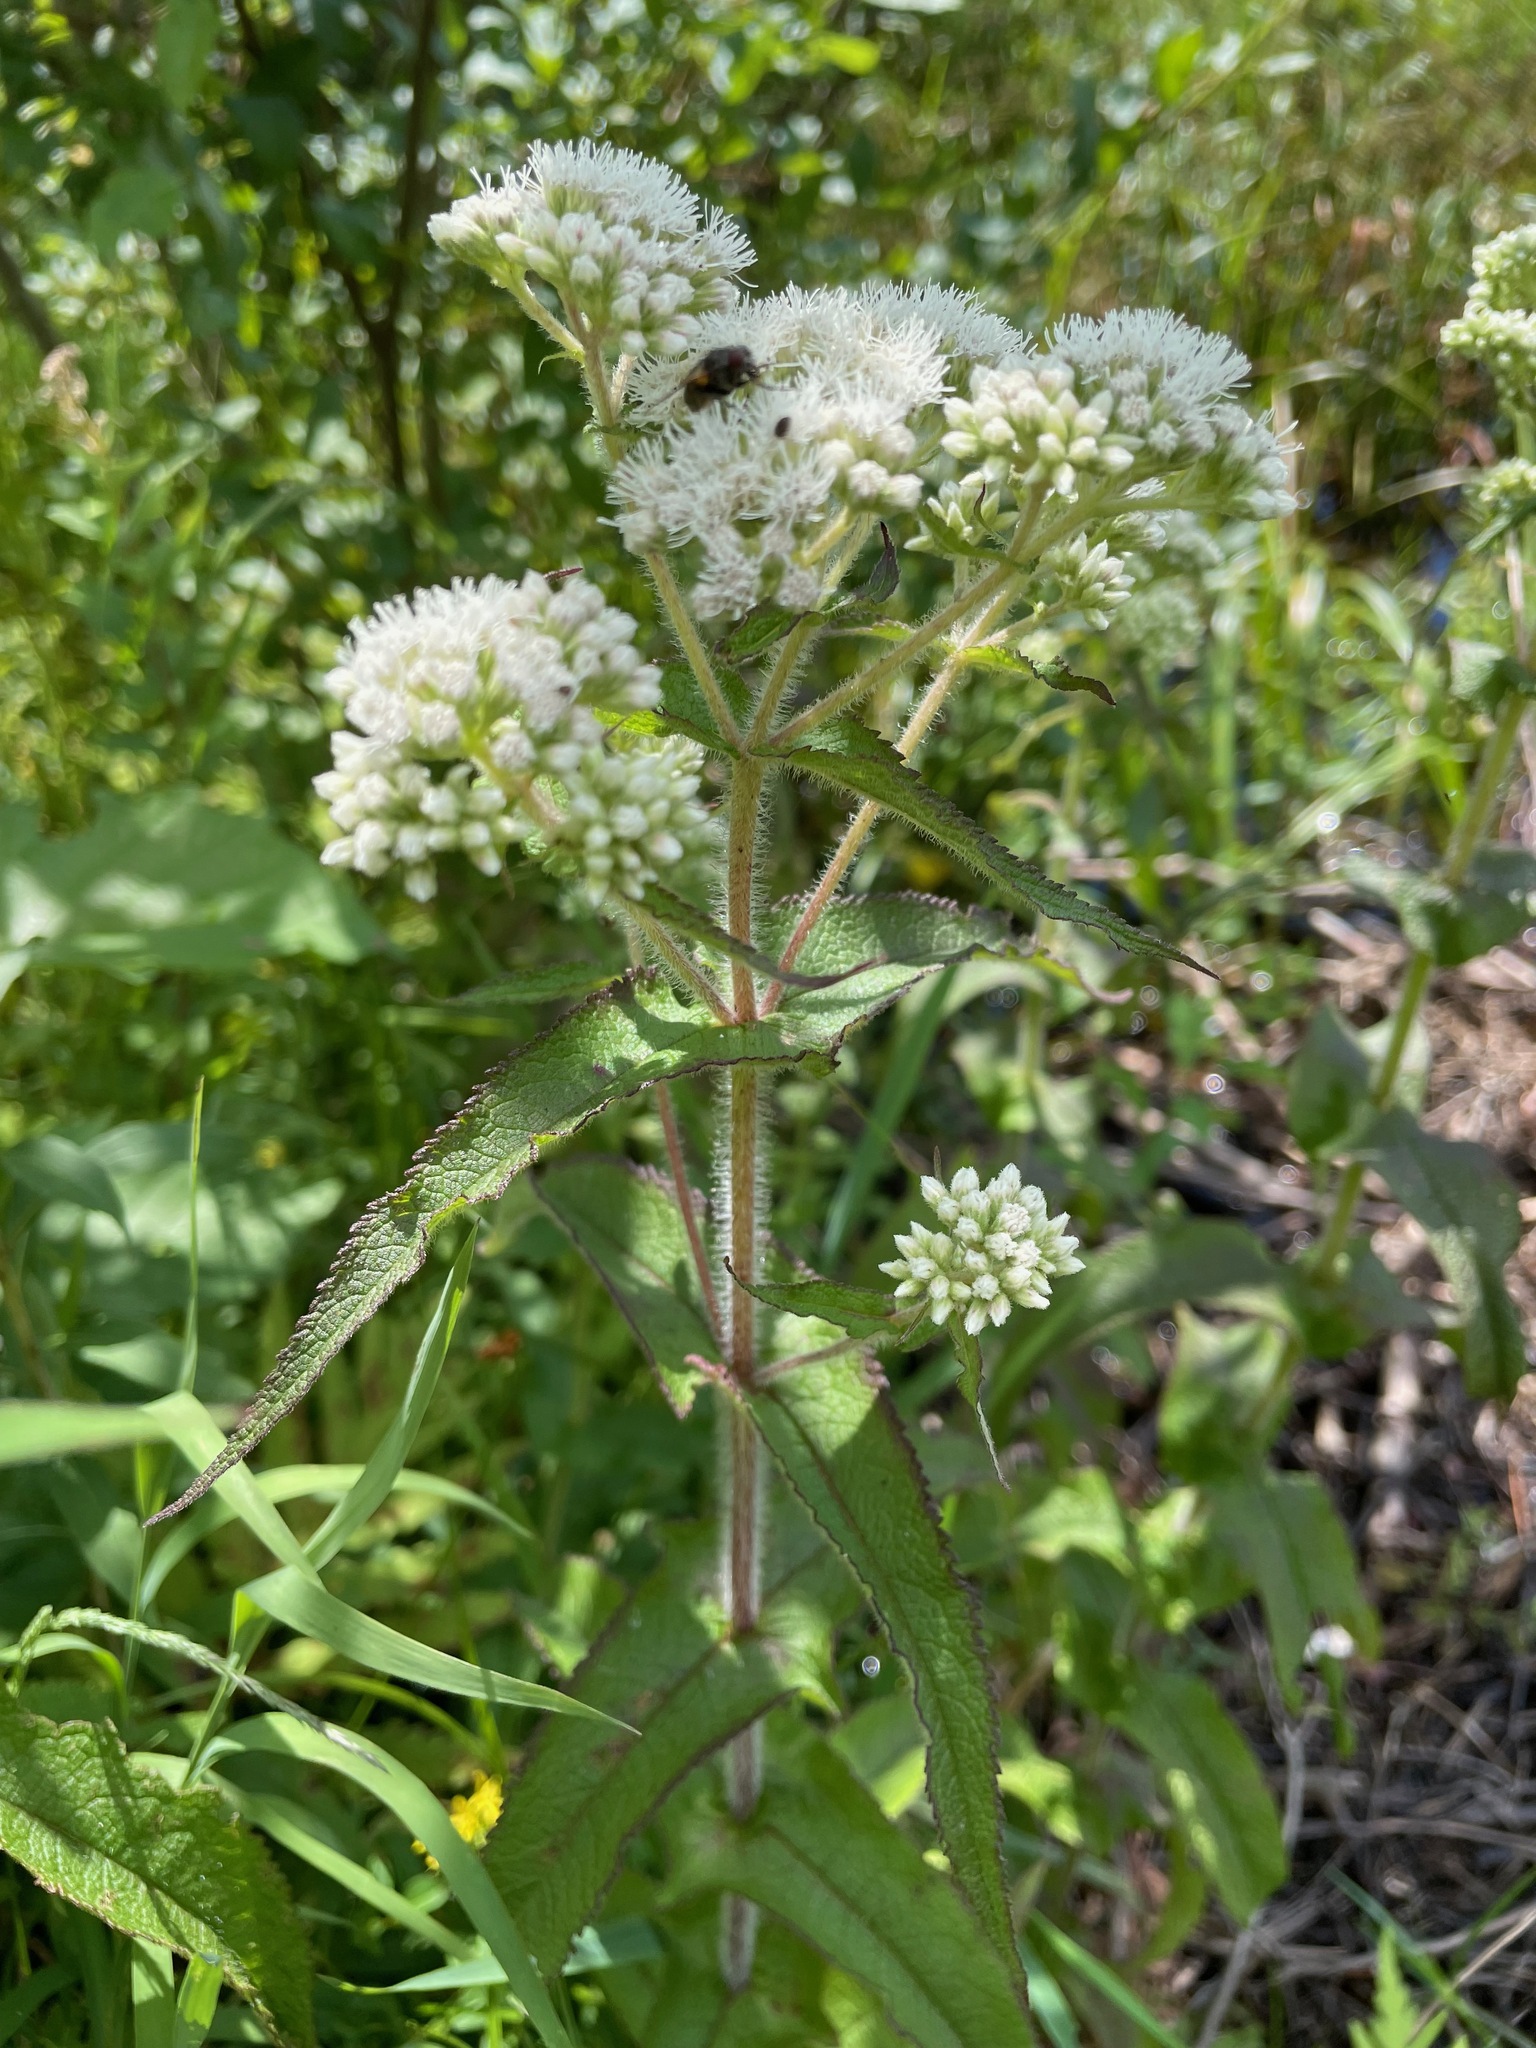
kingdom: Plantae
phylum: Tracheophyta
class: Magnoliopsida
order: Asterales
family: Asteraceae
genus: Eupatorium
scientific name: Eupatorium perfoliatum
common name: Boneset
